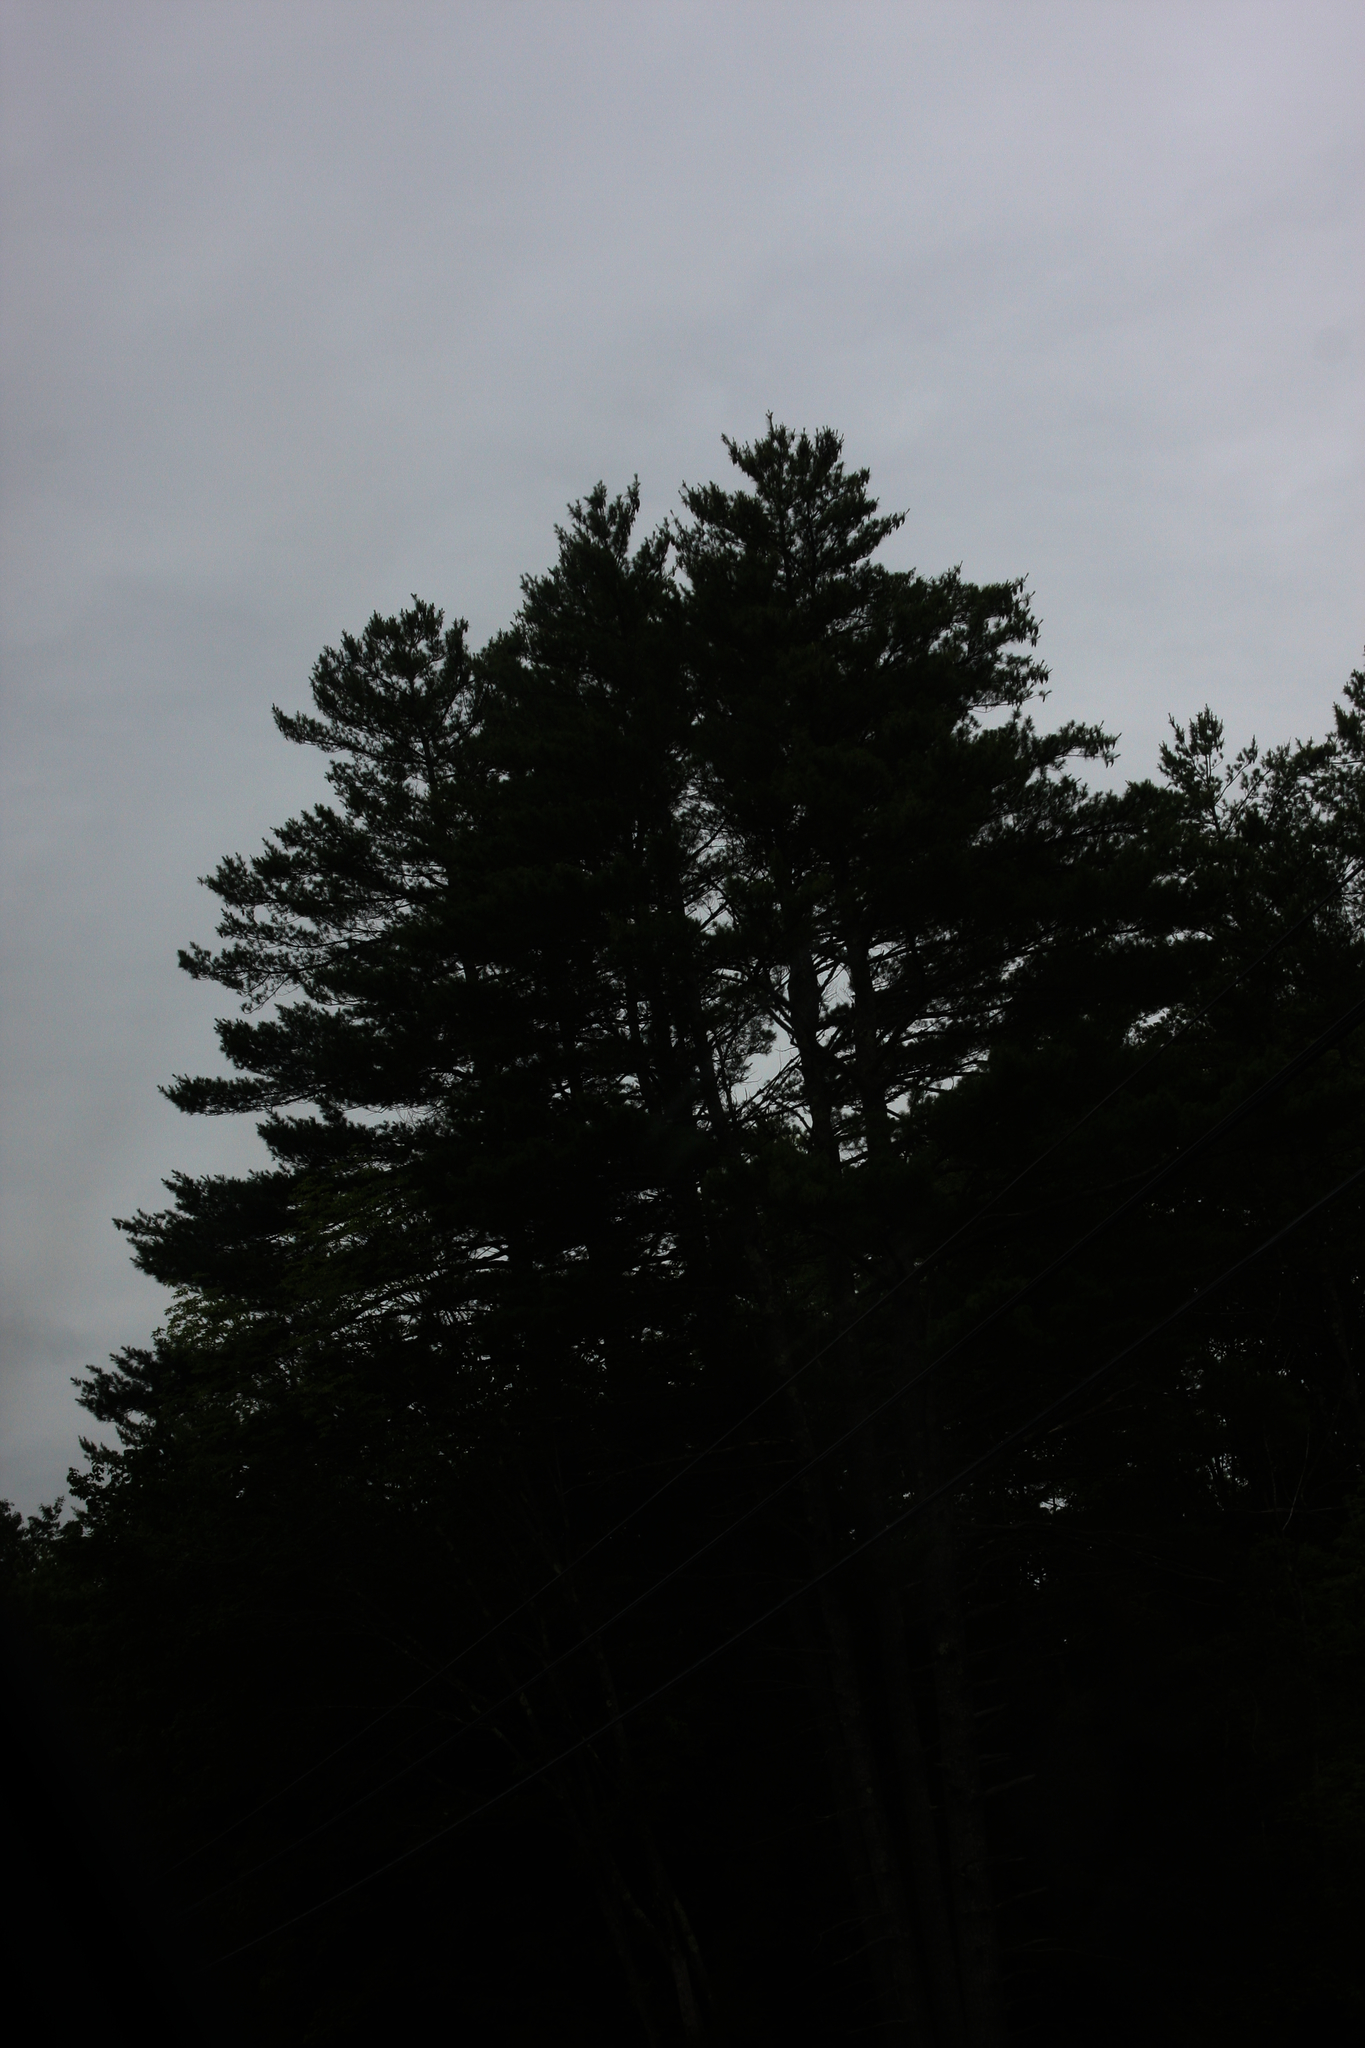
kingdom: Plantae
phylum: Tracheophyta
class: Pinopsida
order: Pinales
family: Pinaceae
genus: Pinus
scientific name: Pinus strobus
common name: Weymouth pine
